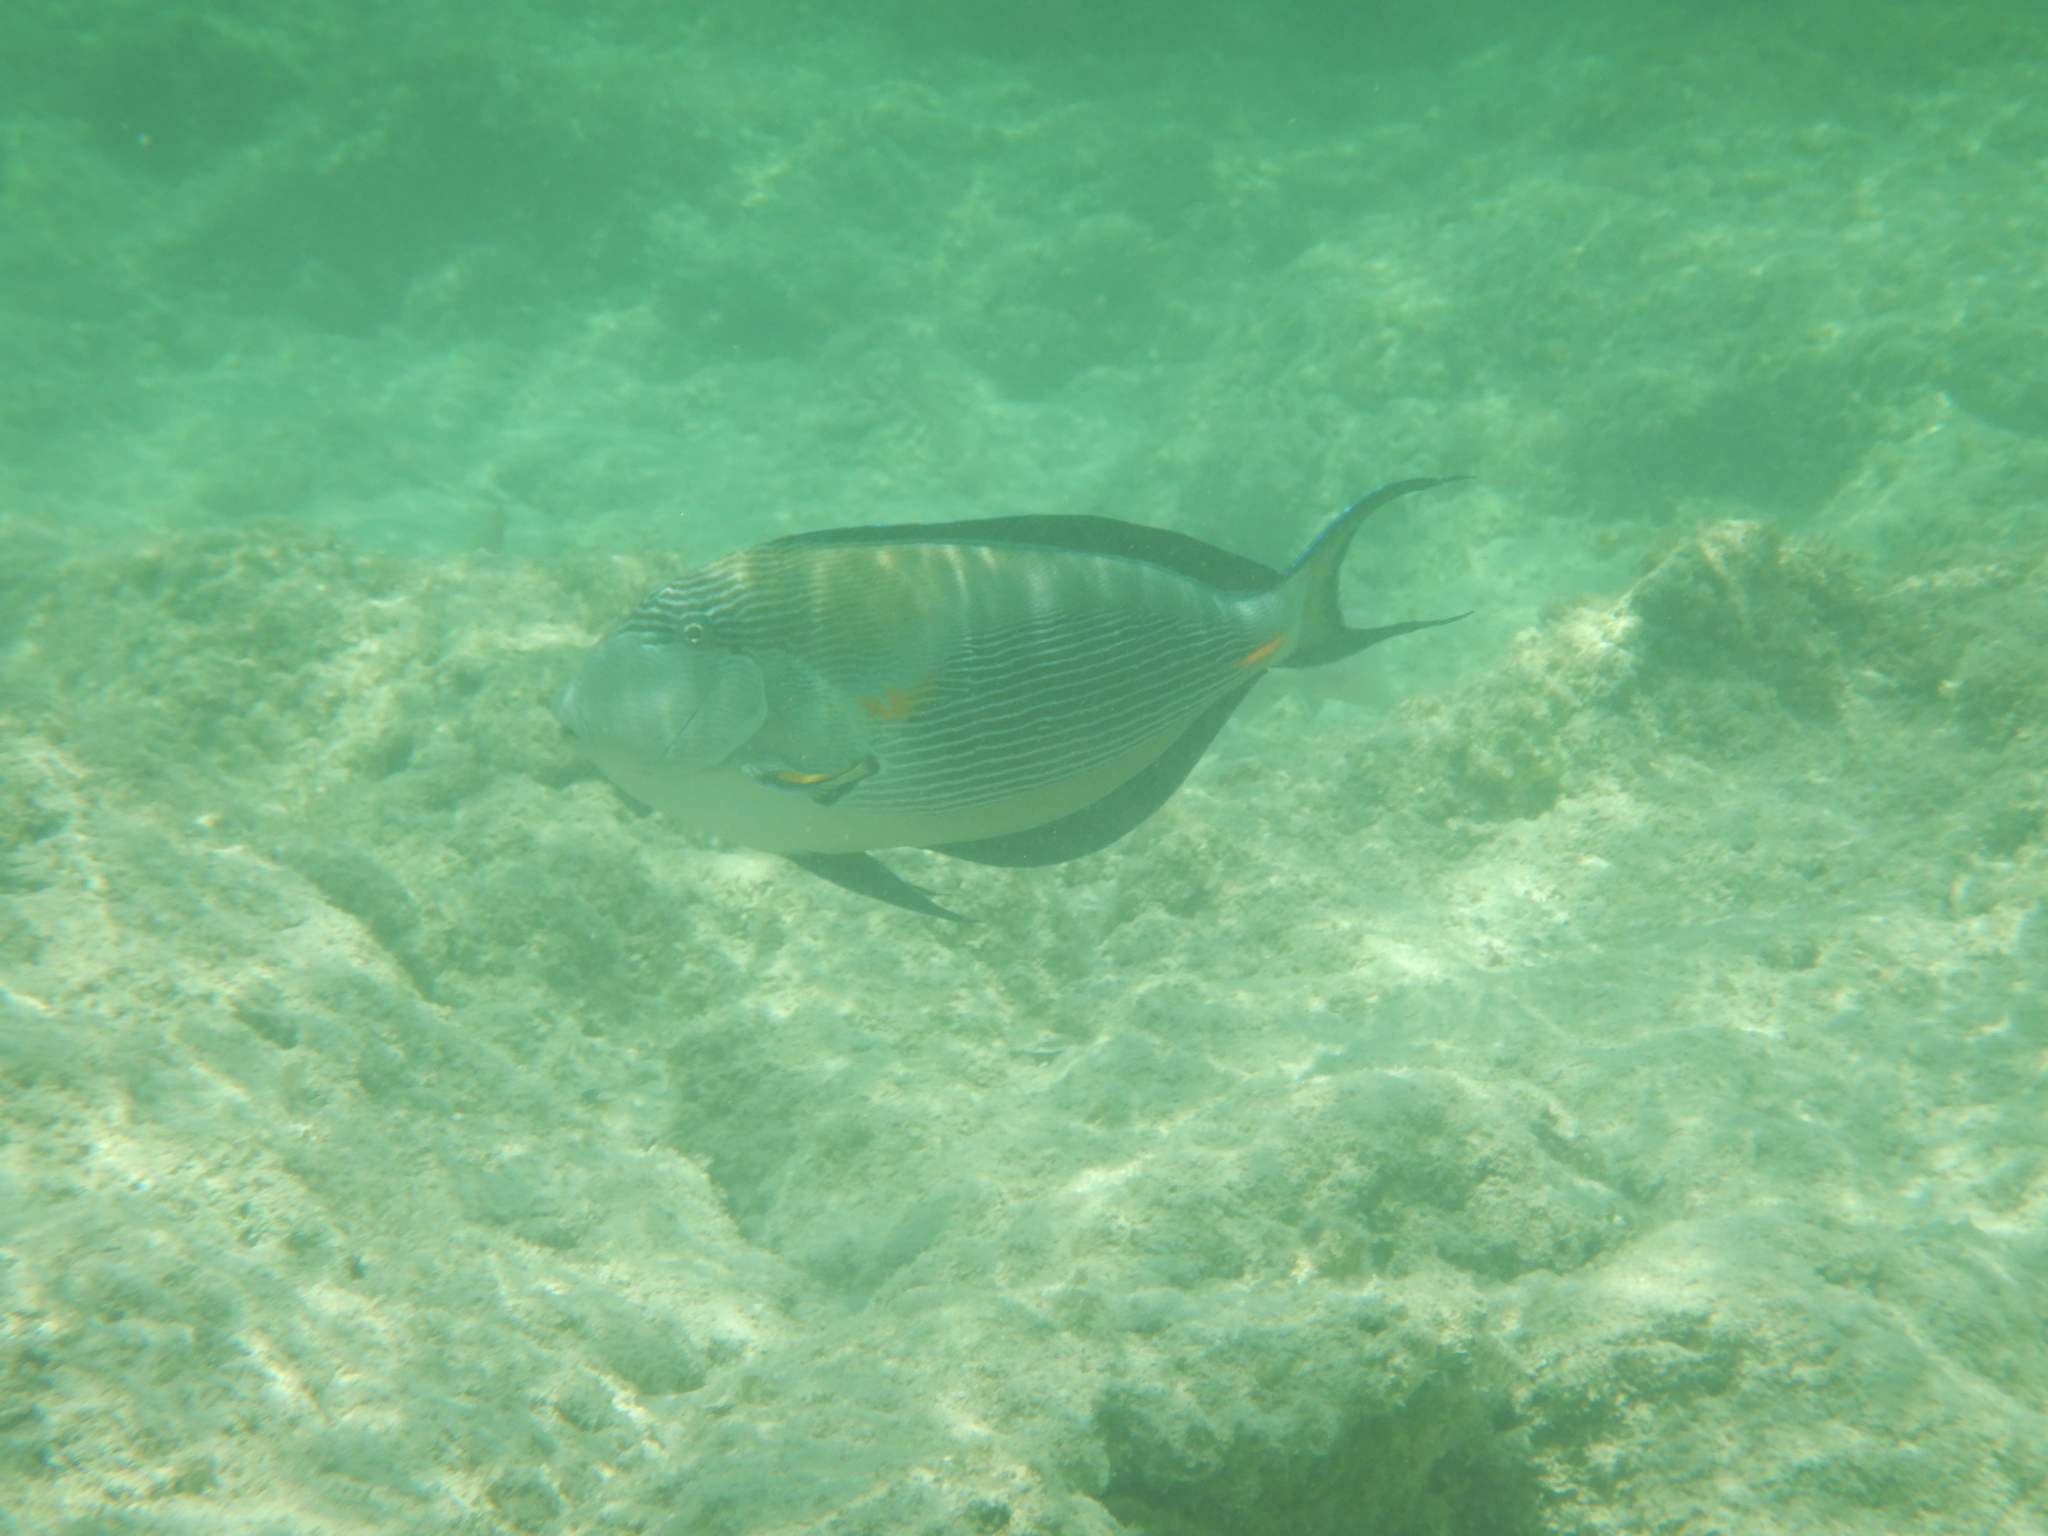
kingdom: Animalia
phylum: Chordata
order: Perciformes
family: Acanthuridae
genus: Acanthurus
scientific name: Acanthurus sohal
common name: Red sea surgeonfish
